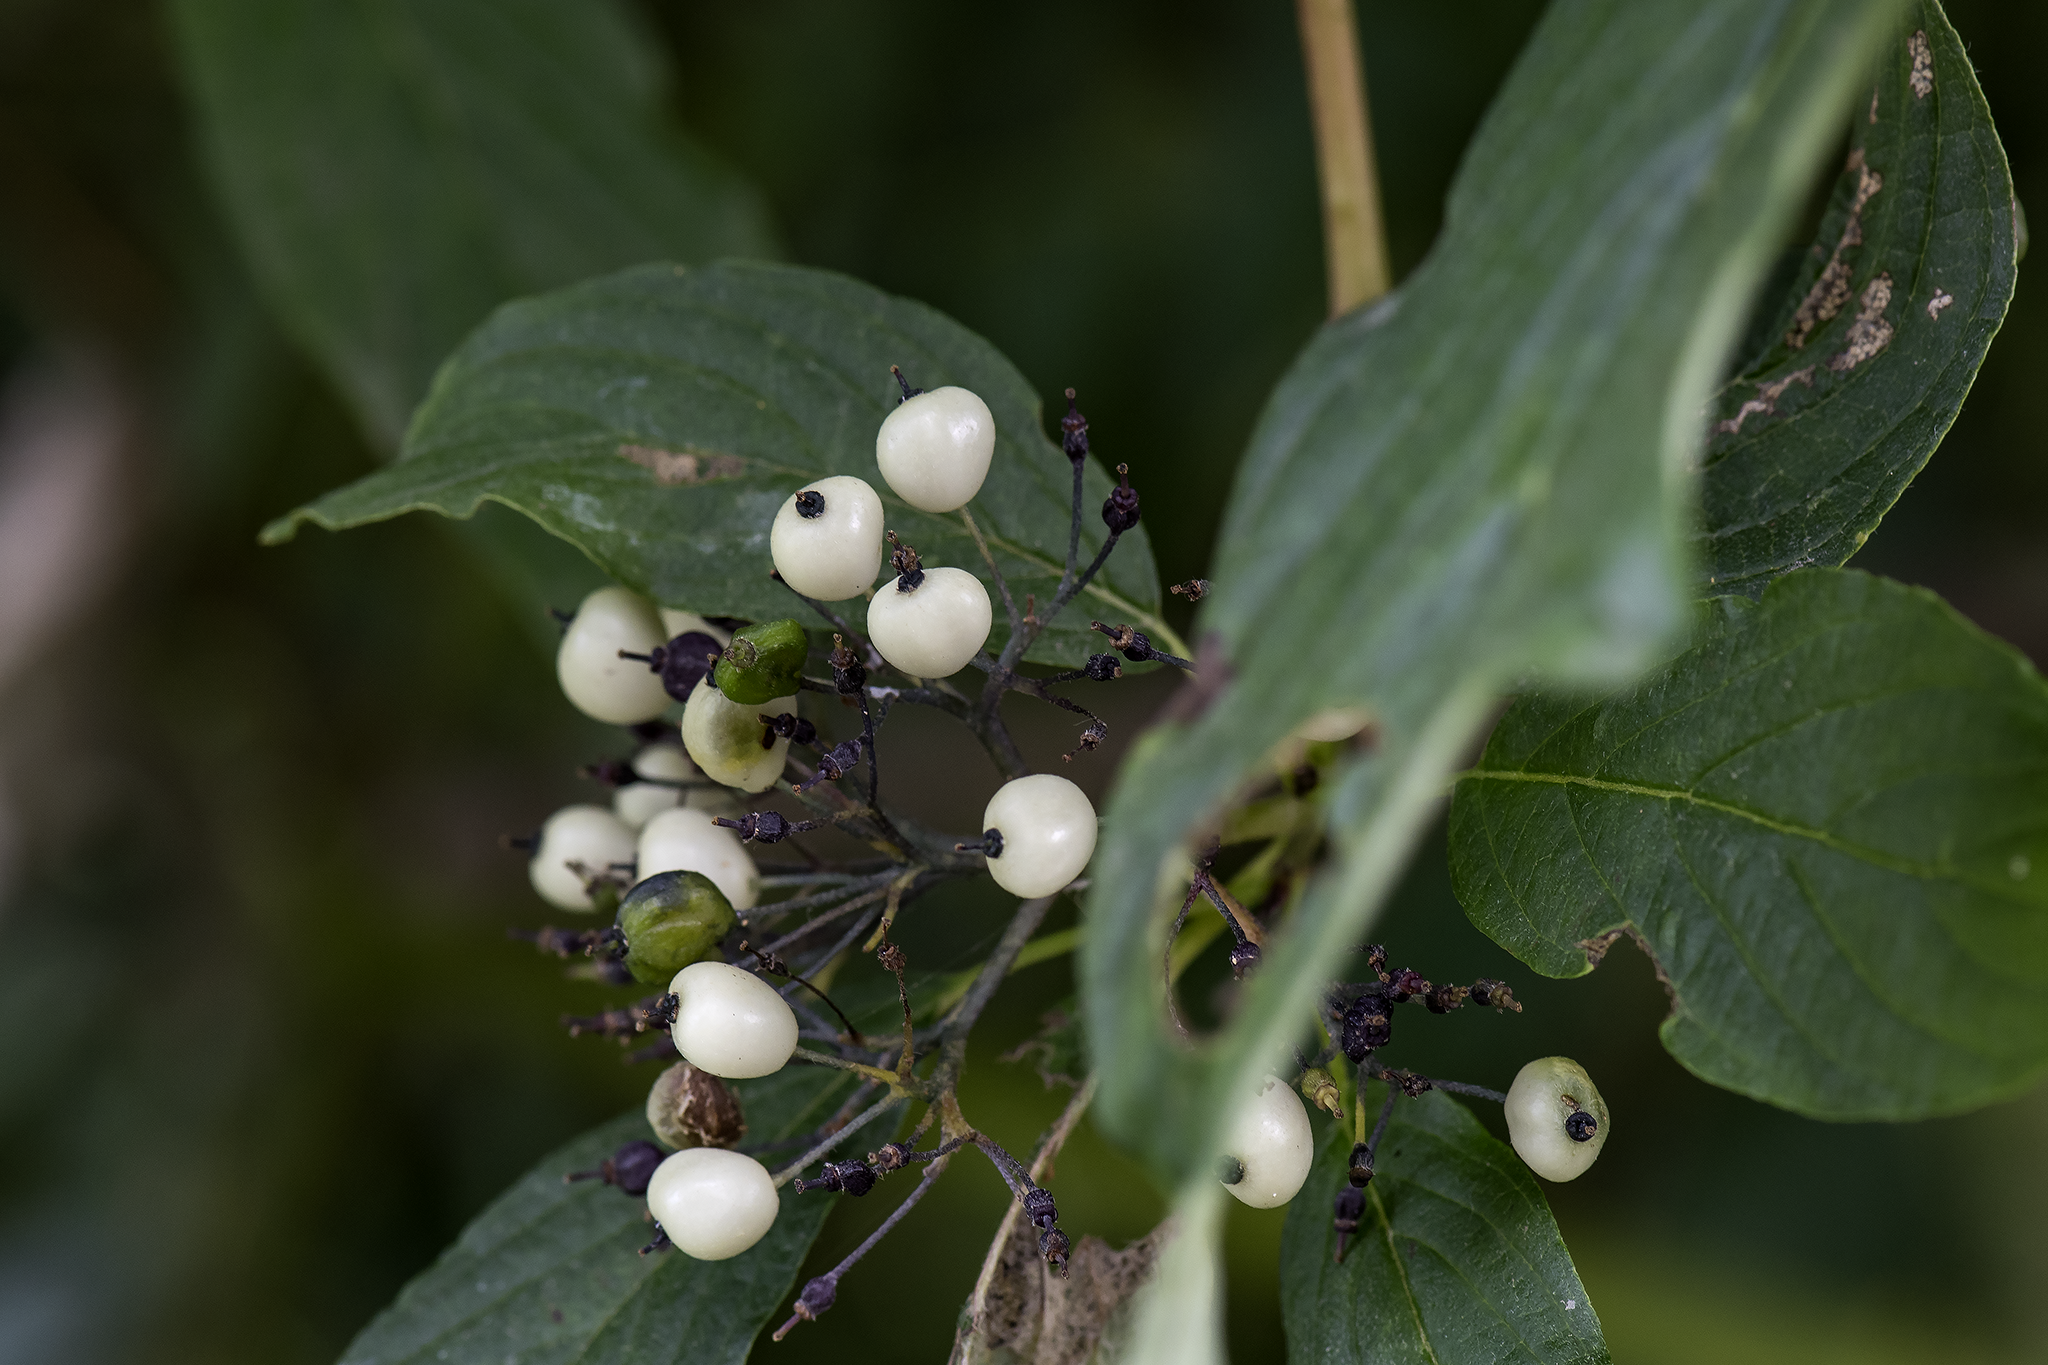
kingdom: Plantae
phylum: Tracheophyta
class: Magnoliopsida
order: Cornales
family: Cornaceae
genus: Cornus
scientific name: Cornus sericea
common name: Red-osier dogwood
